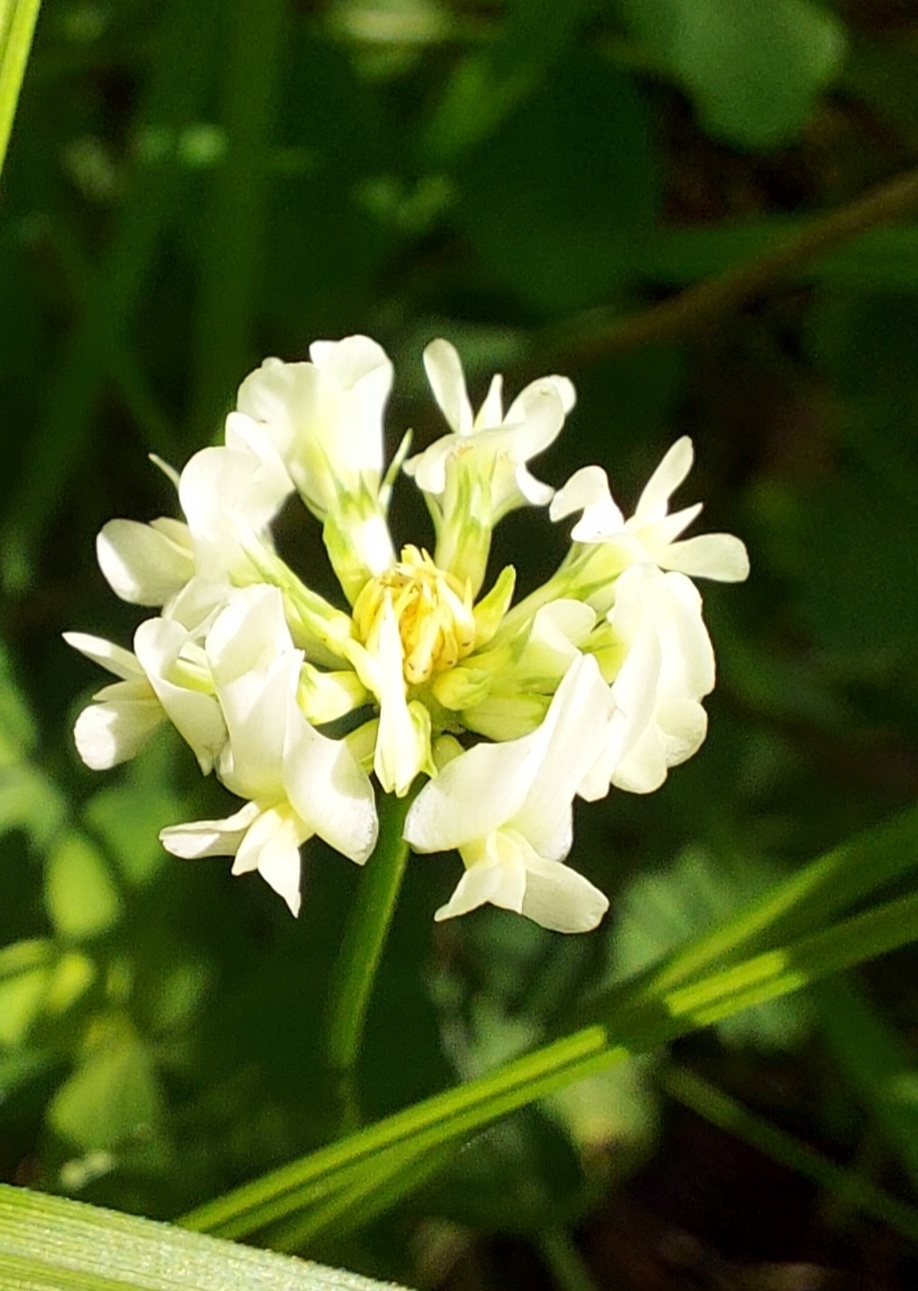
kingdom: Plantae
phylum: Tracheophyta
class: Magnoliopsida
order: Fabales
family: Fabaceae
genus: Trifolium
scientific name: Trifolium repens
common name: White clover
